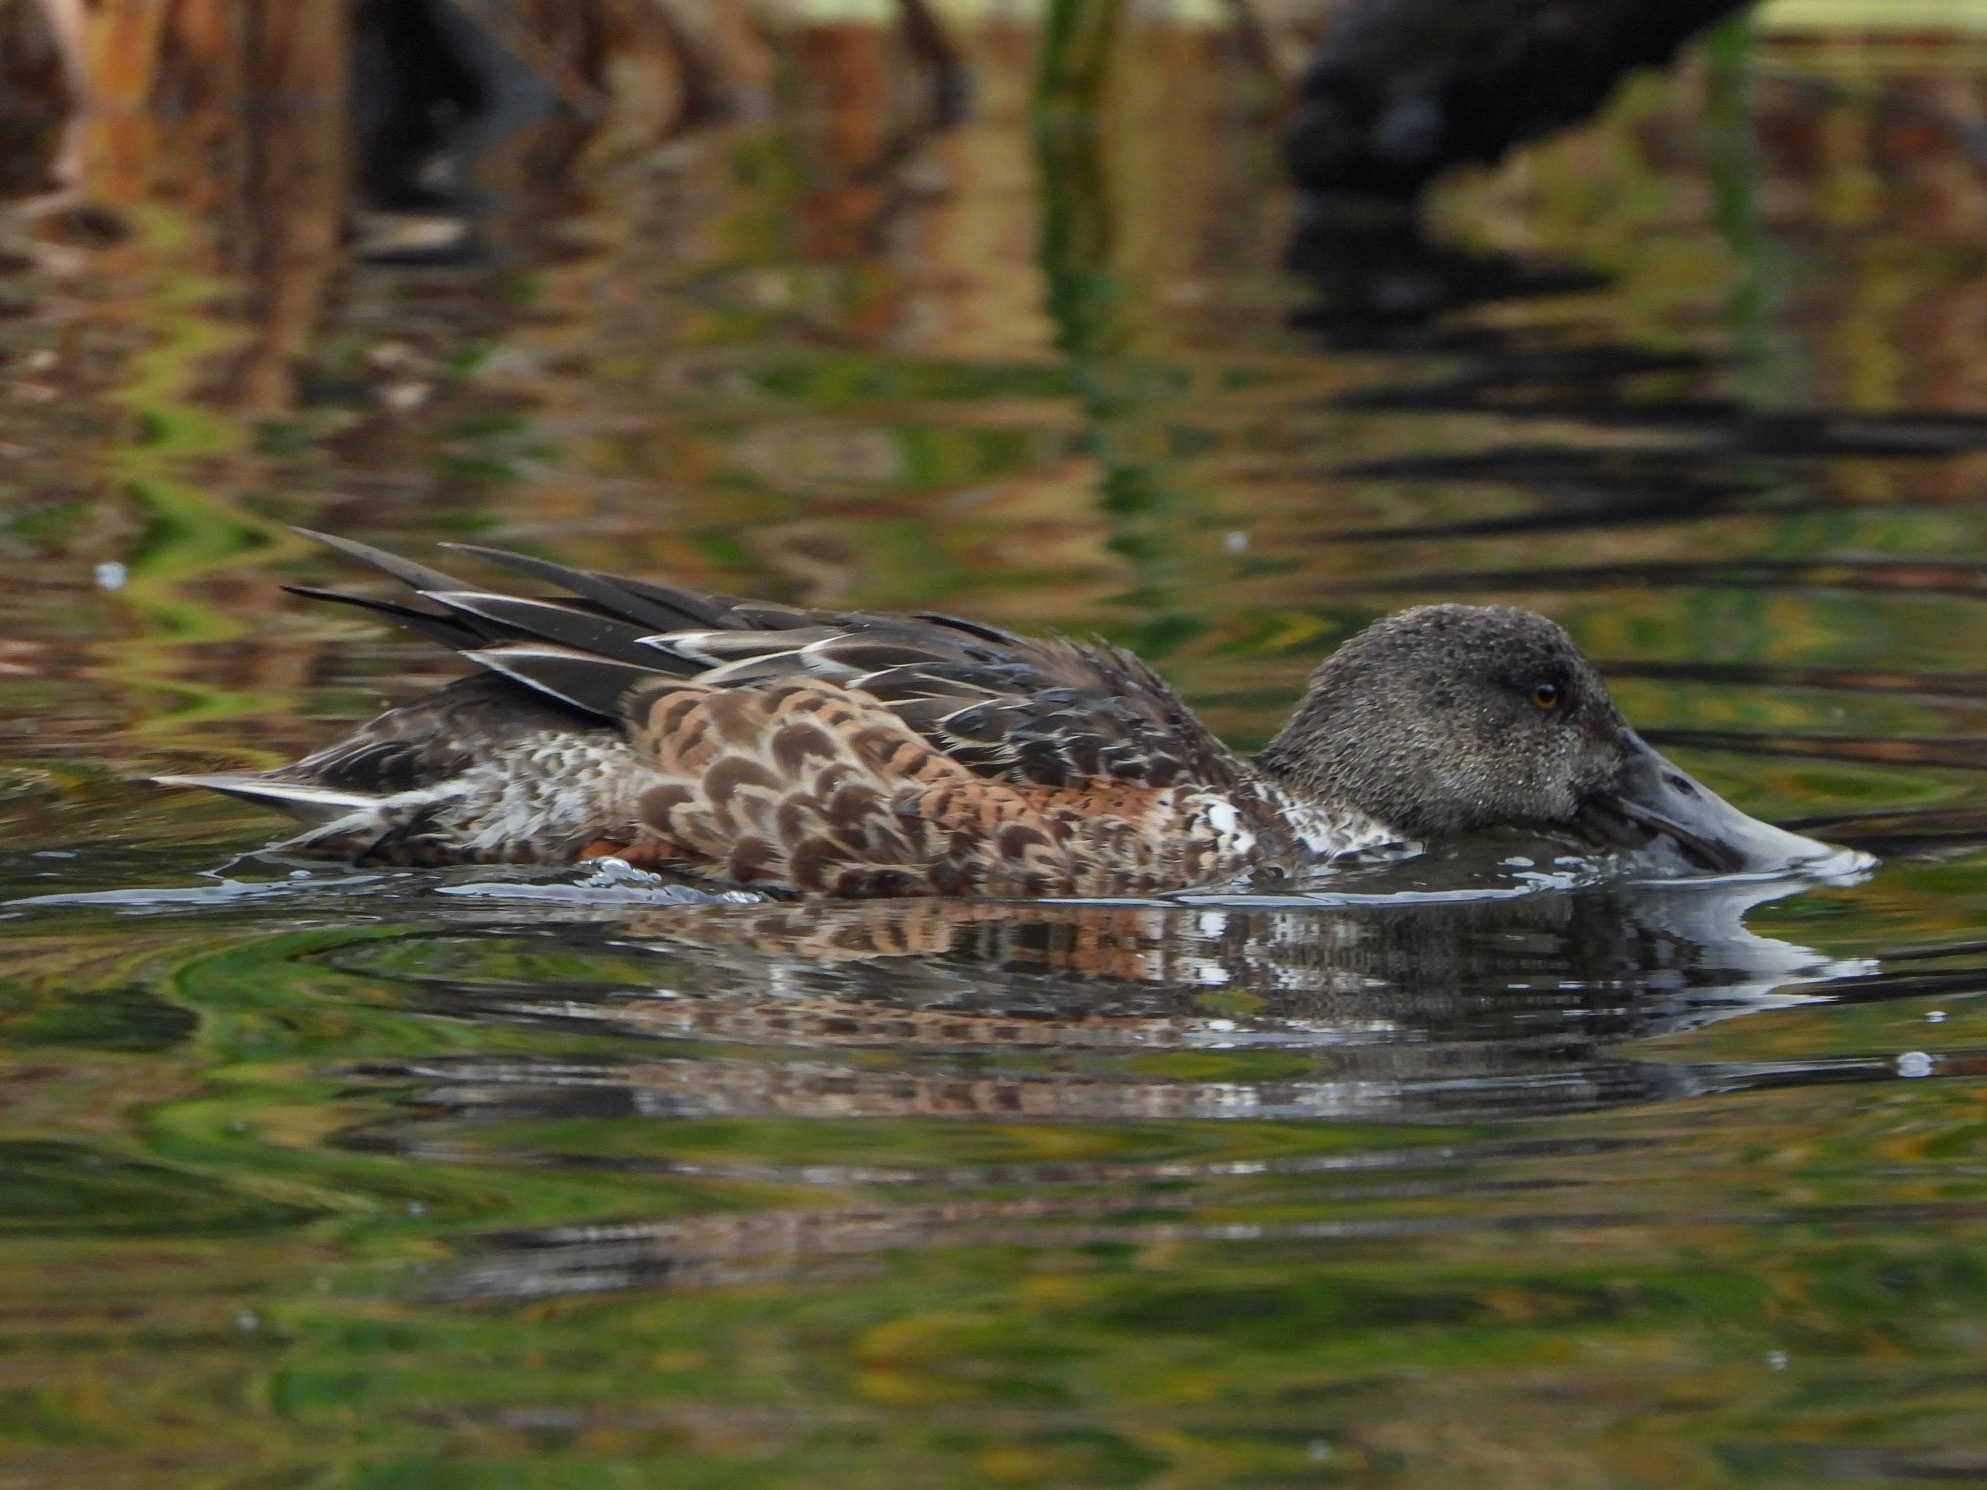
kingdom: Animalia
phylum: Chordata
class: Aves
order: Anseriformes
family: Anatidae
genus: Spatula
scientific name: Spatula clypeata
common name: Northern shoveler
